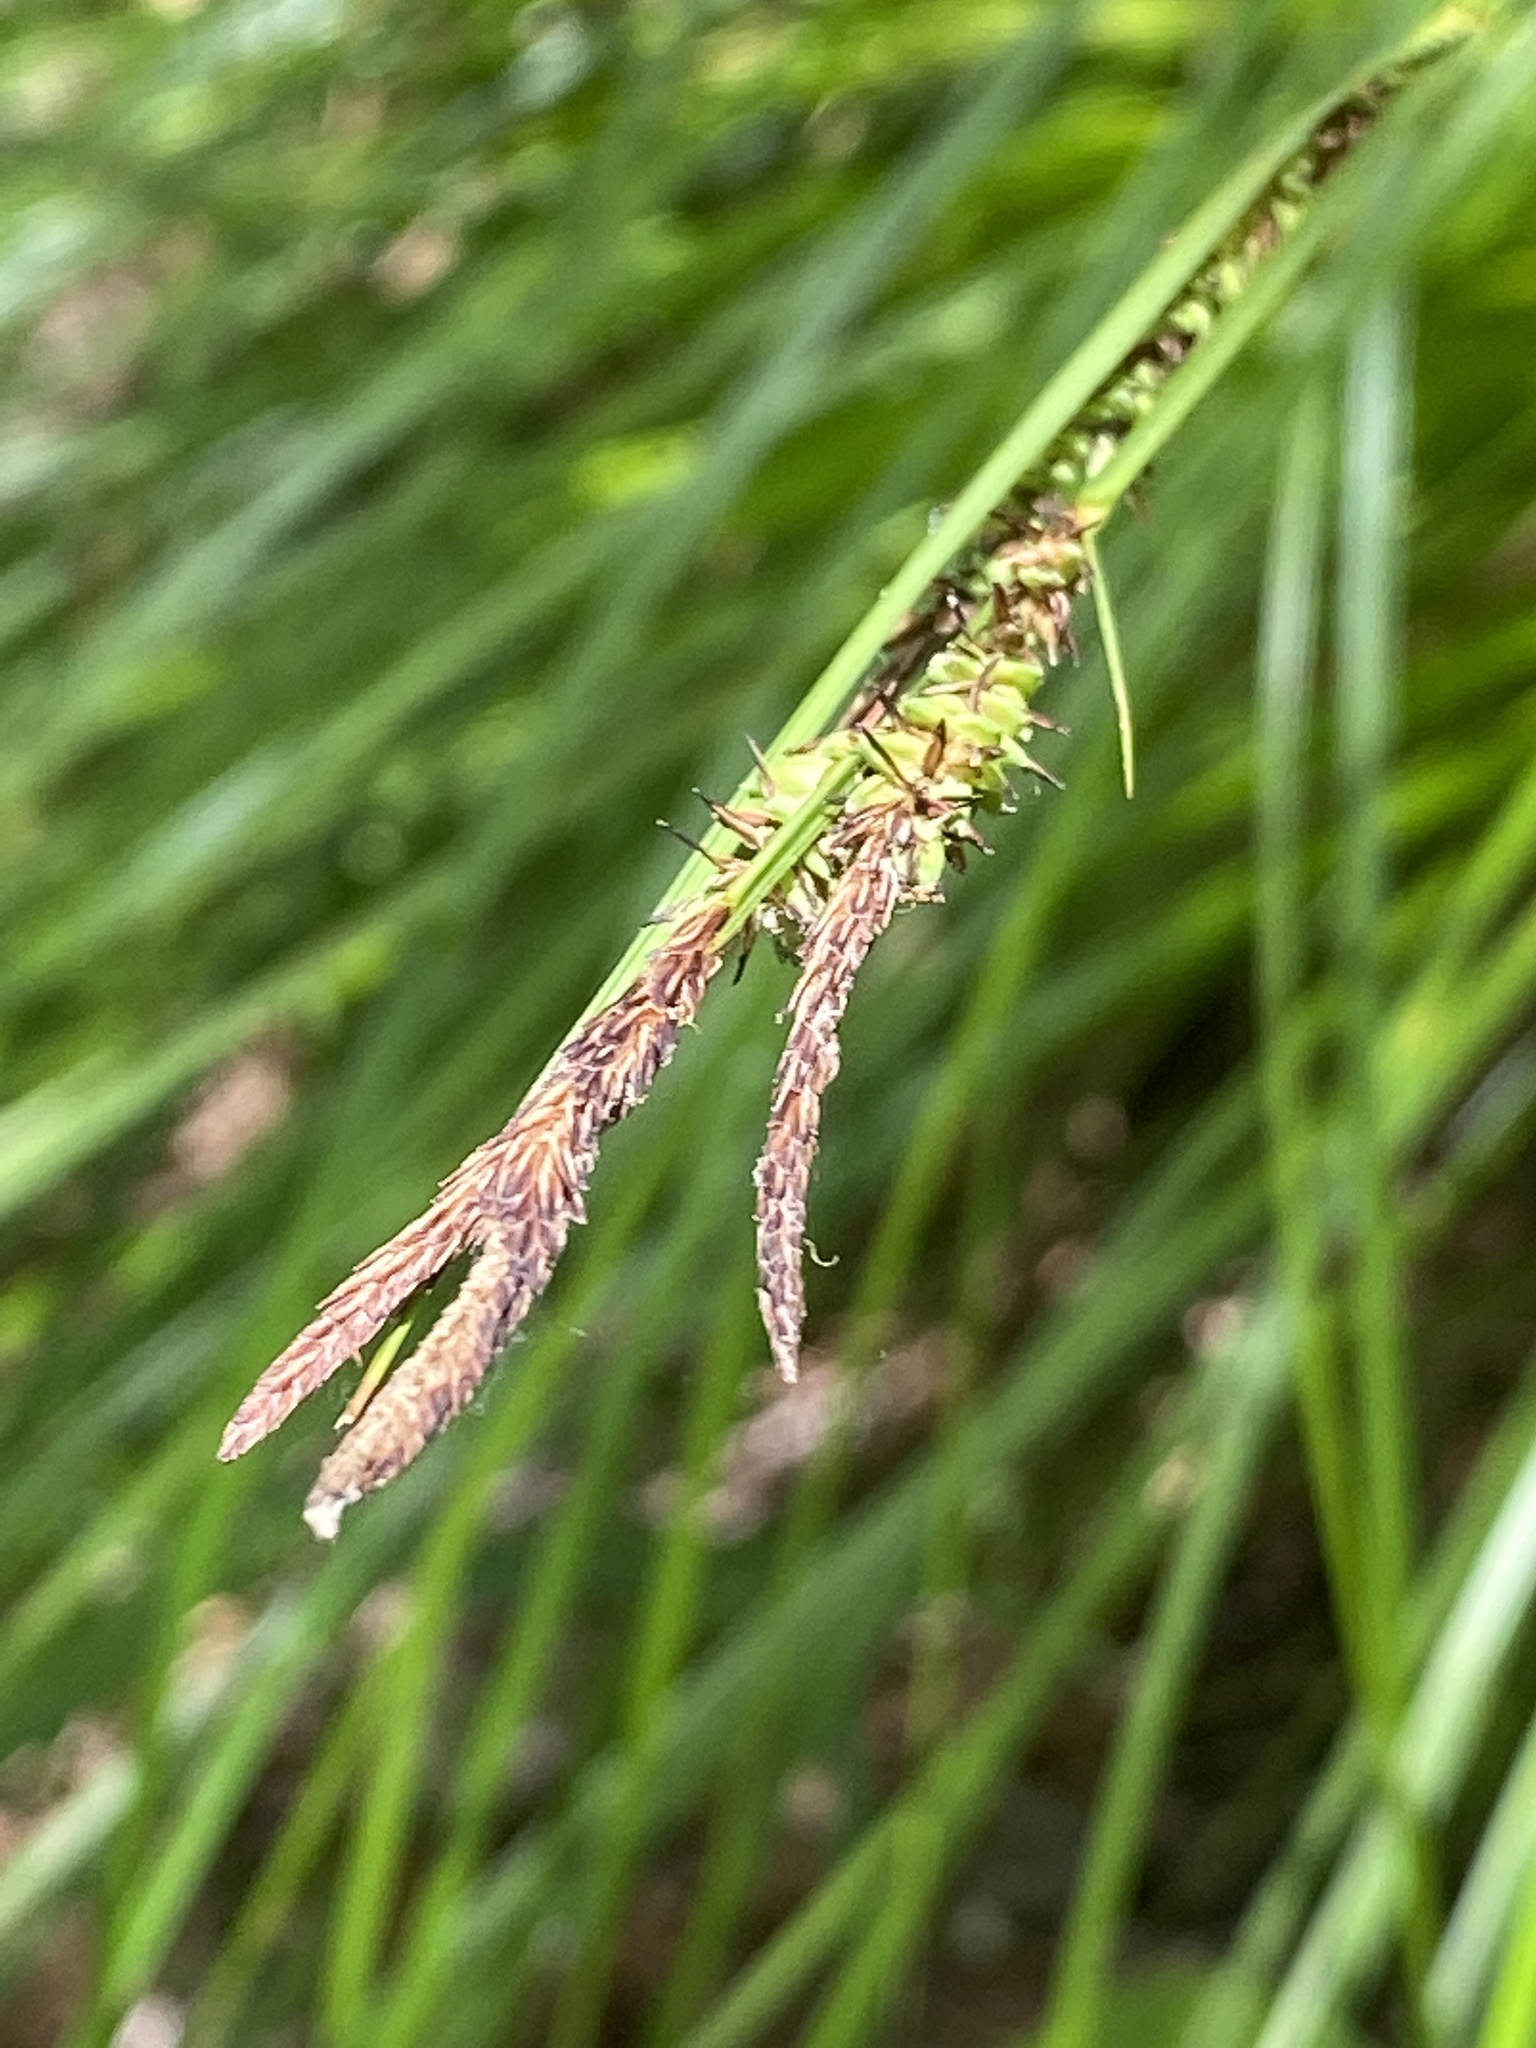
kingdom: Plantae
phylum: Tracheophyta
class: Liliopsida
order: Poales
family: Cyperaceae
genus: Carex
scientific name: Carex stricta
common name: Hummock sedge
